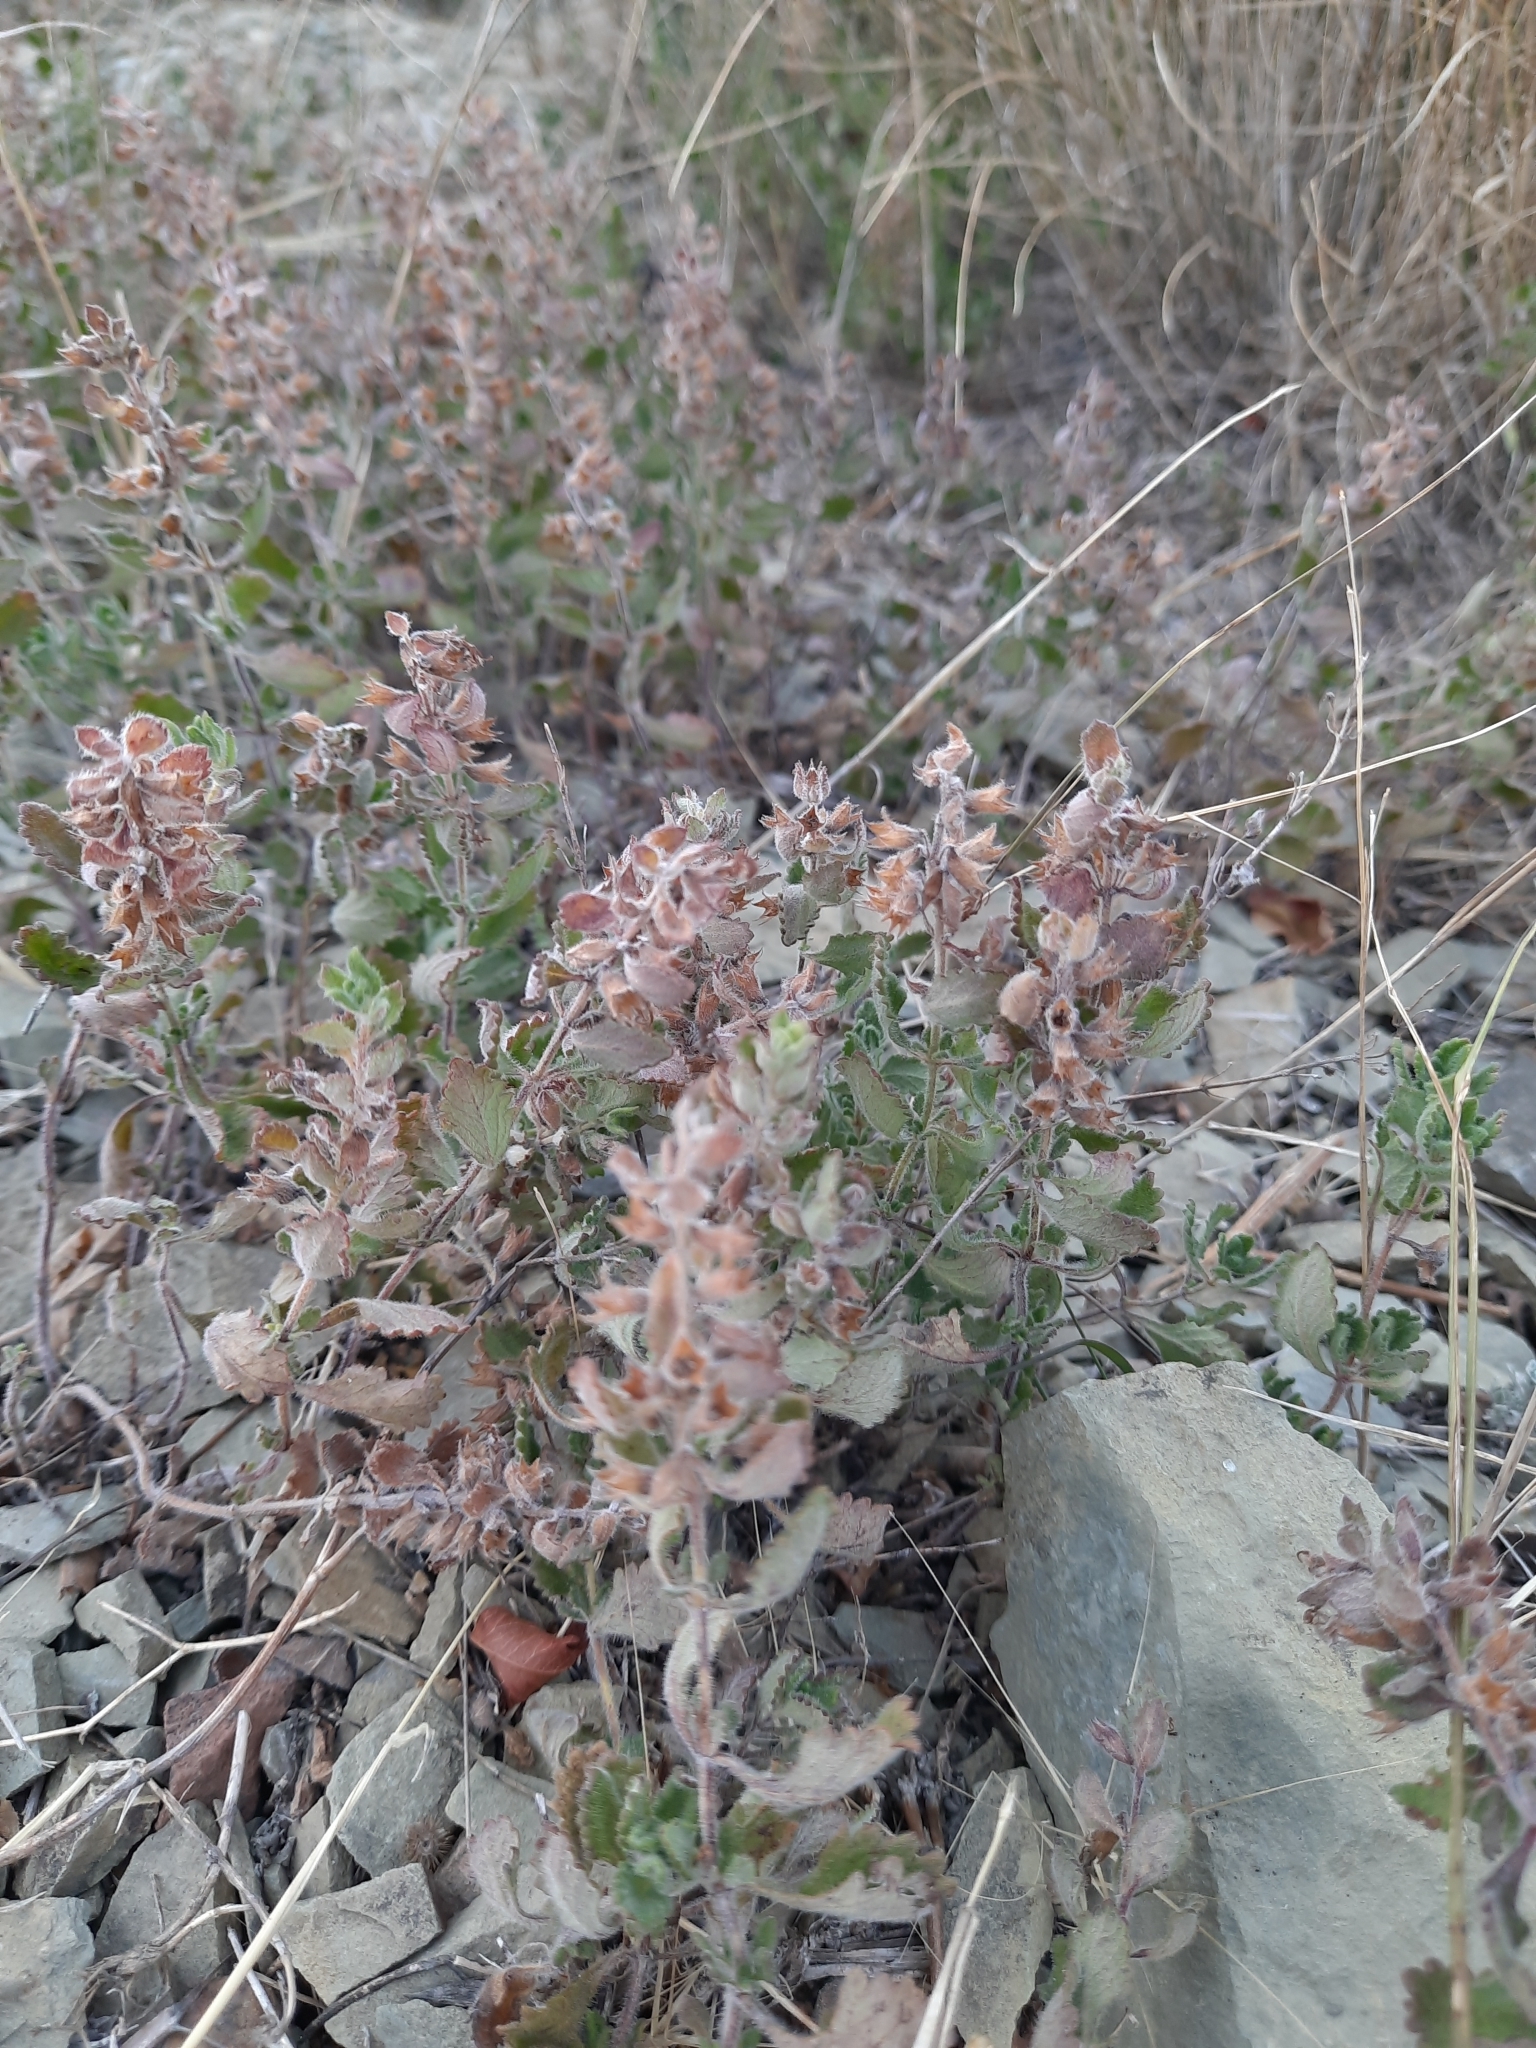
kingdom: Plantae
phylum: Tracheophyta
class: Magnoliopsida
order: Lamiales
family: Lamiaceae
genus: Teucrium
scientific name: Teucrium chamaedrys
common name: Wall germander
